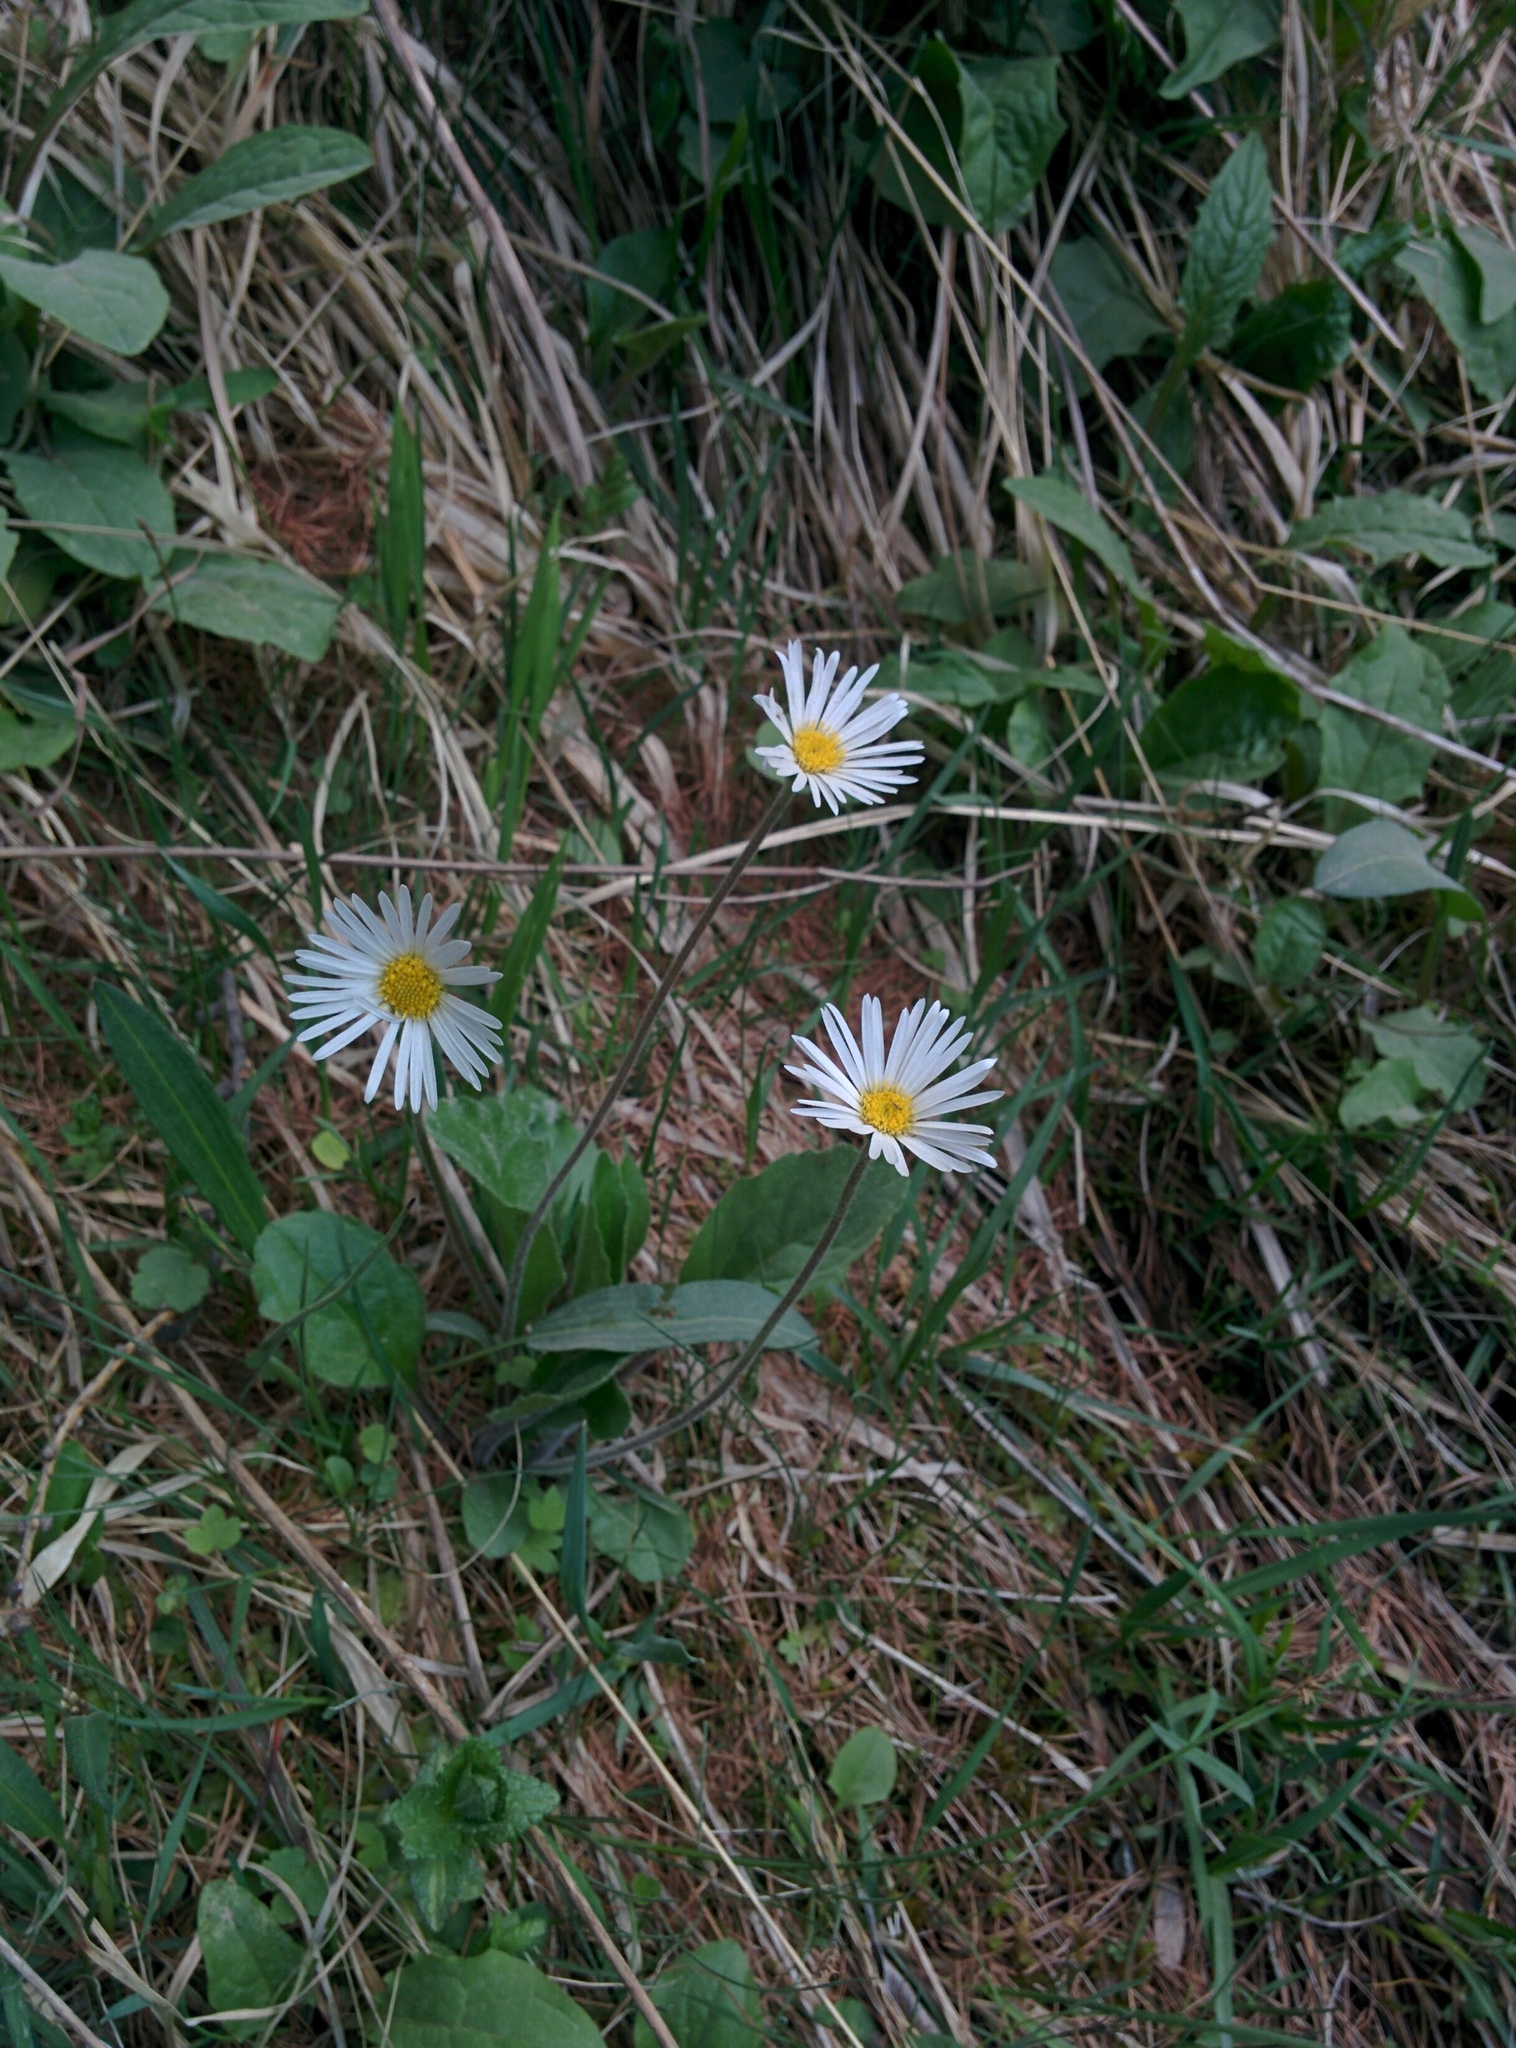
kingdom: Plantae
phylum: Tracheophyta
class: Magnoliopsida
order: Asterales
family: Asteraceae
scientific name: Asteraceae
